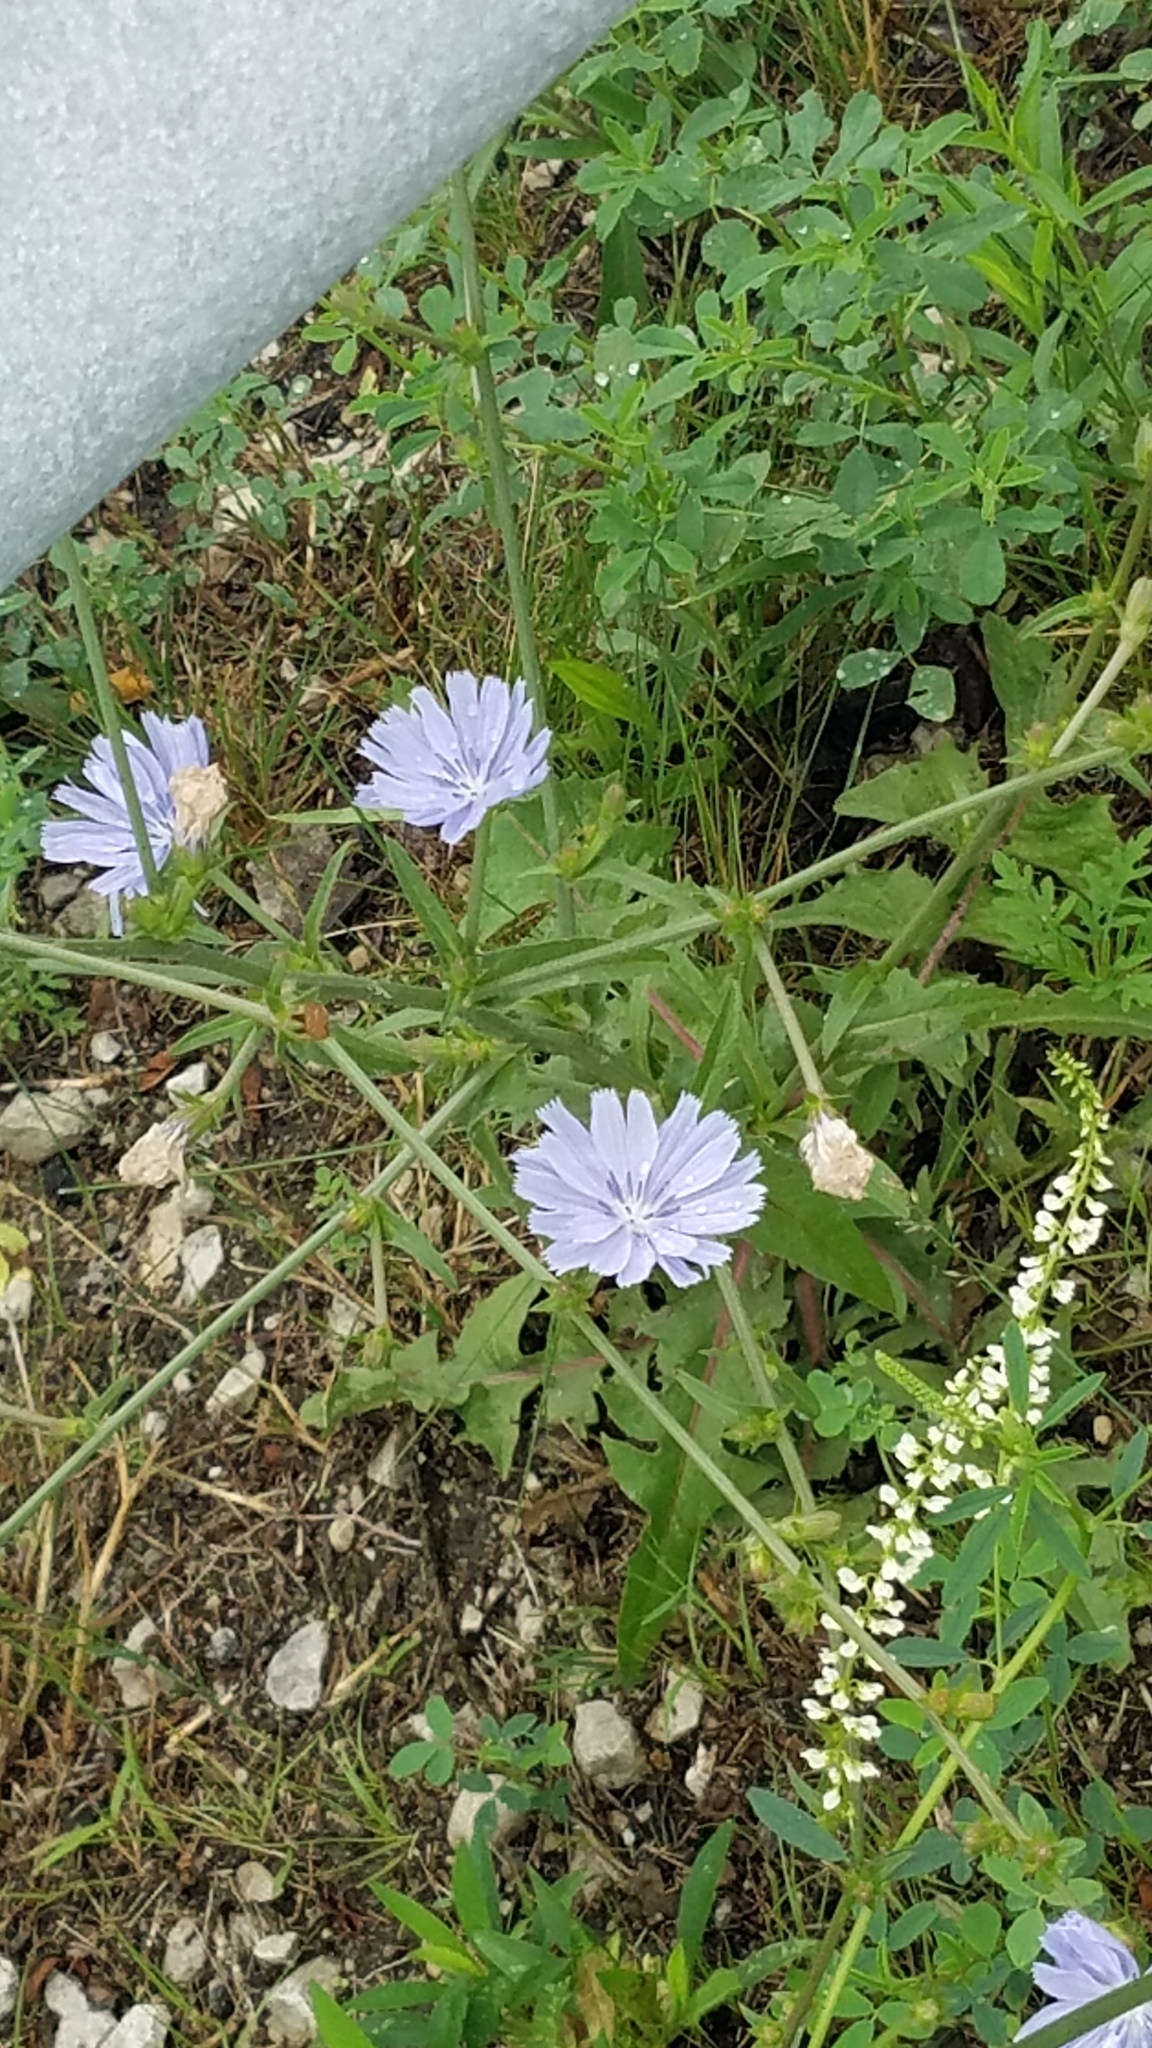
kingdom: Plantae
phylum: Tracheophyta
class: Magnoliopsida
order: Asterales
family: Asteraceae
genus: Cichorium
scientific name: Cichorium intybus
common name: Chicory
